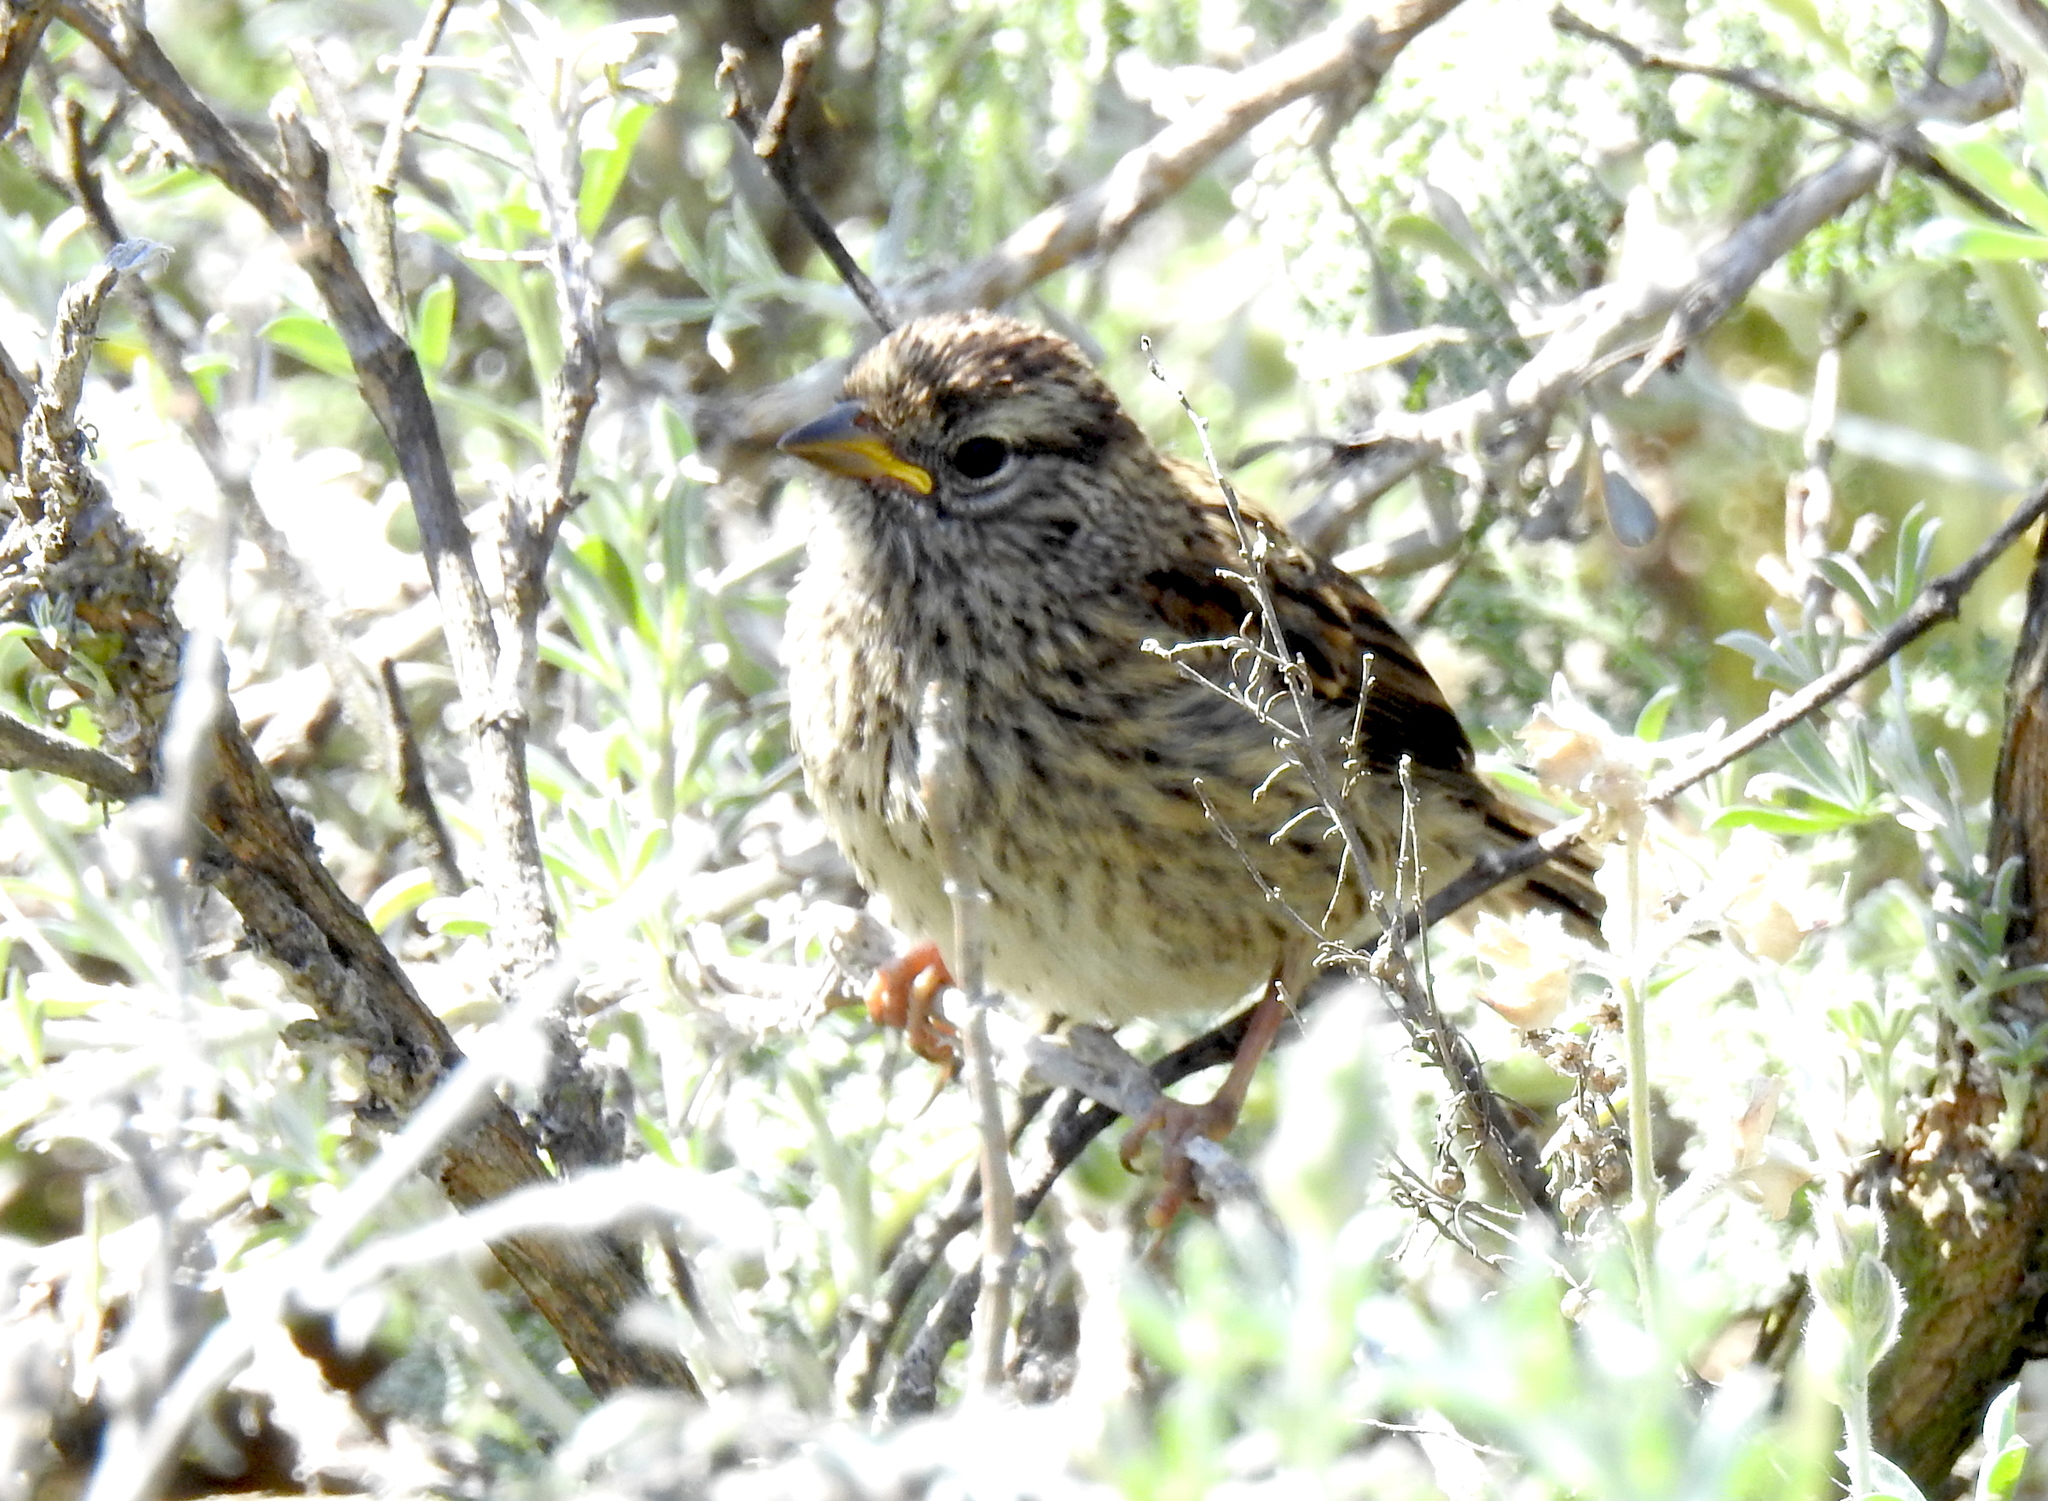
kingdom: Animalia
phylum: Chordata
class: Aves
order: Passeriformes
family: Passerellidae
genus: Zonotrichia
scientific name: Zonotrichia leucophrys
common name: White-crowned sparrow
